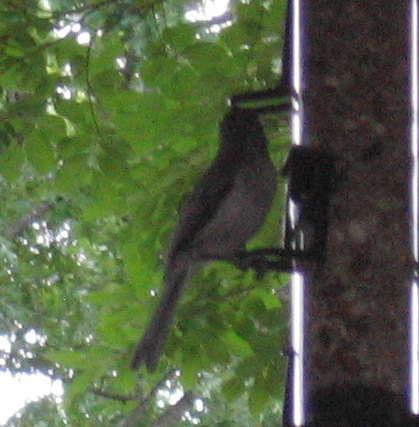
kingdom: Animalia
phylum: Chordata
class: Aves
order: Passeriformes
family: Paridae
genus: Baeolophus
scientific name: Baeolophus bicolor
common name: Tufted titmouse
